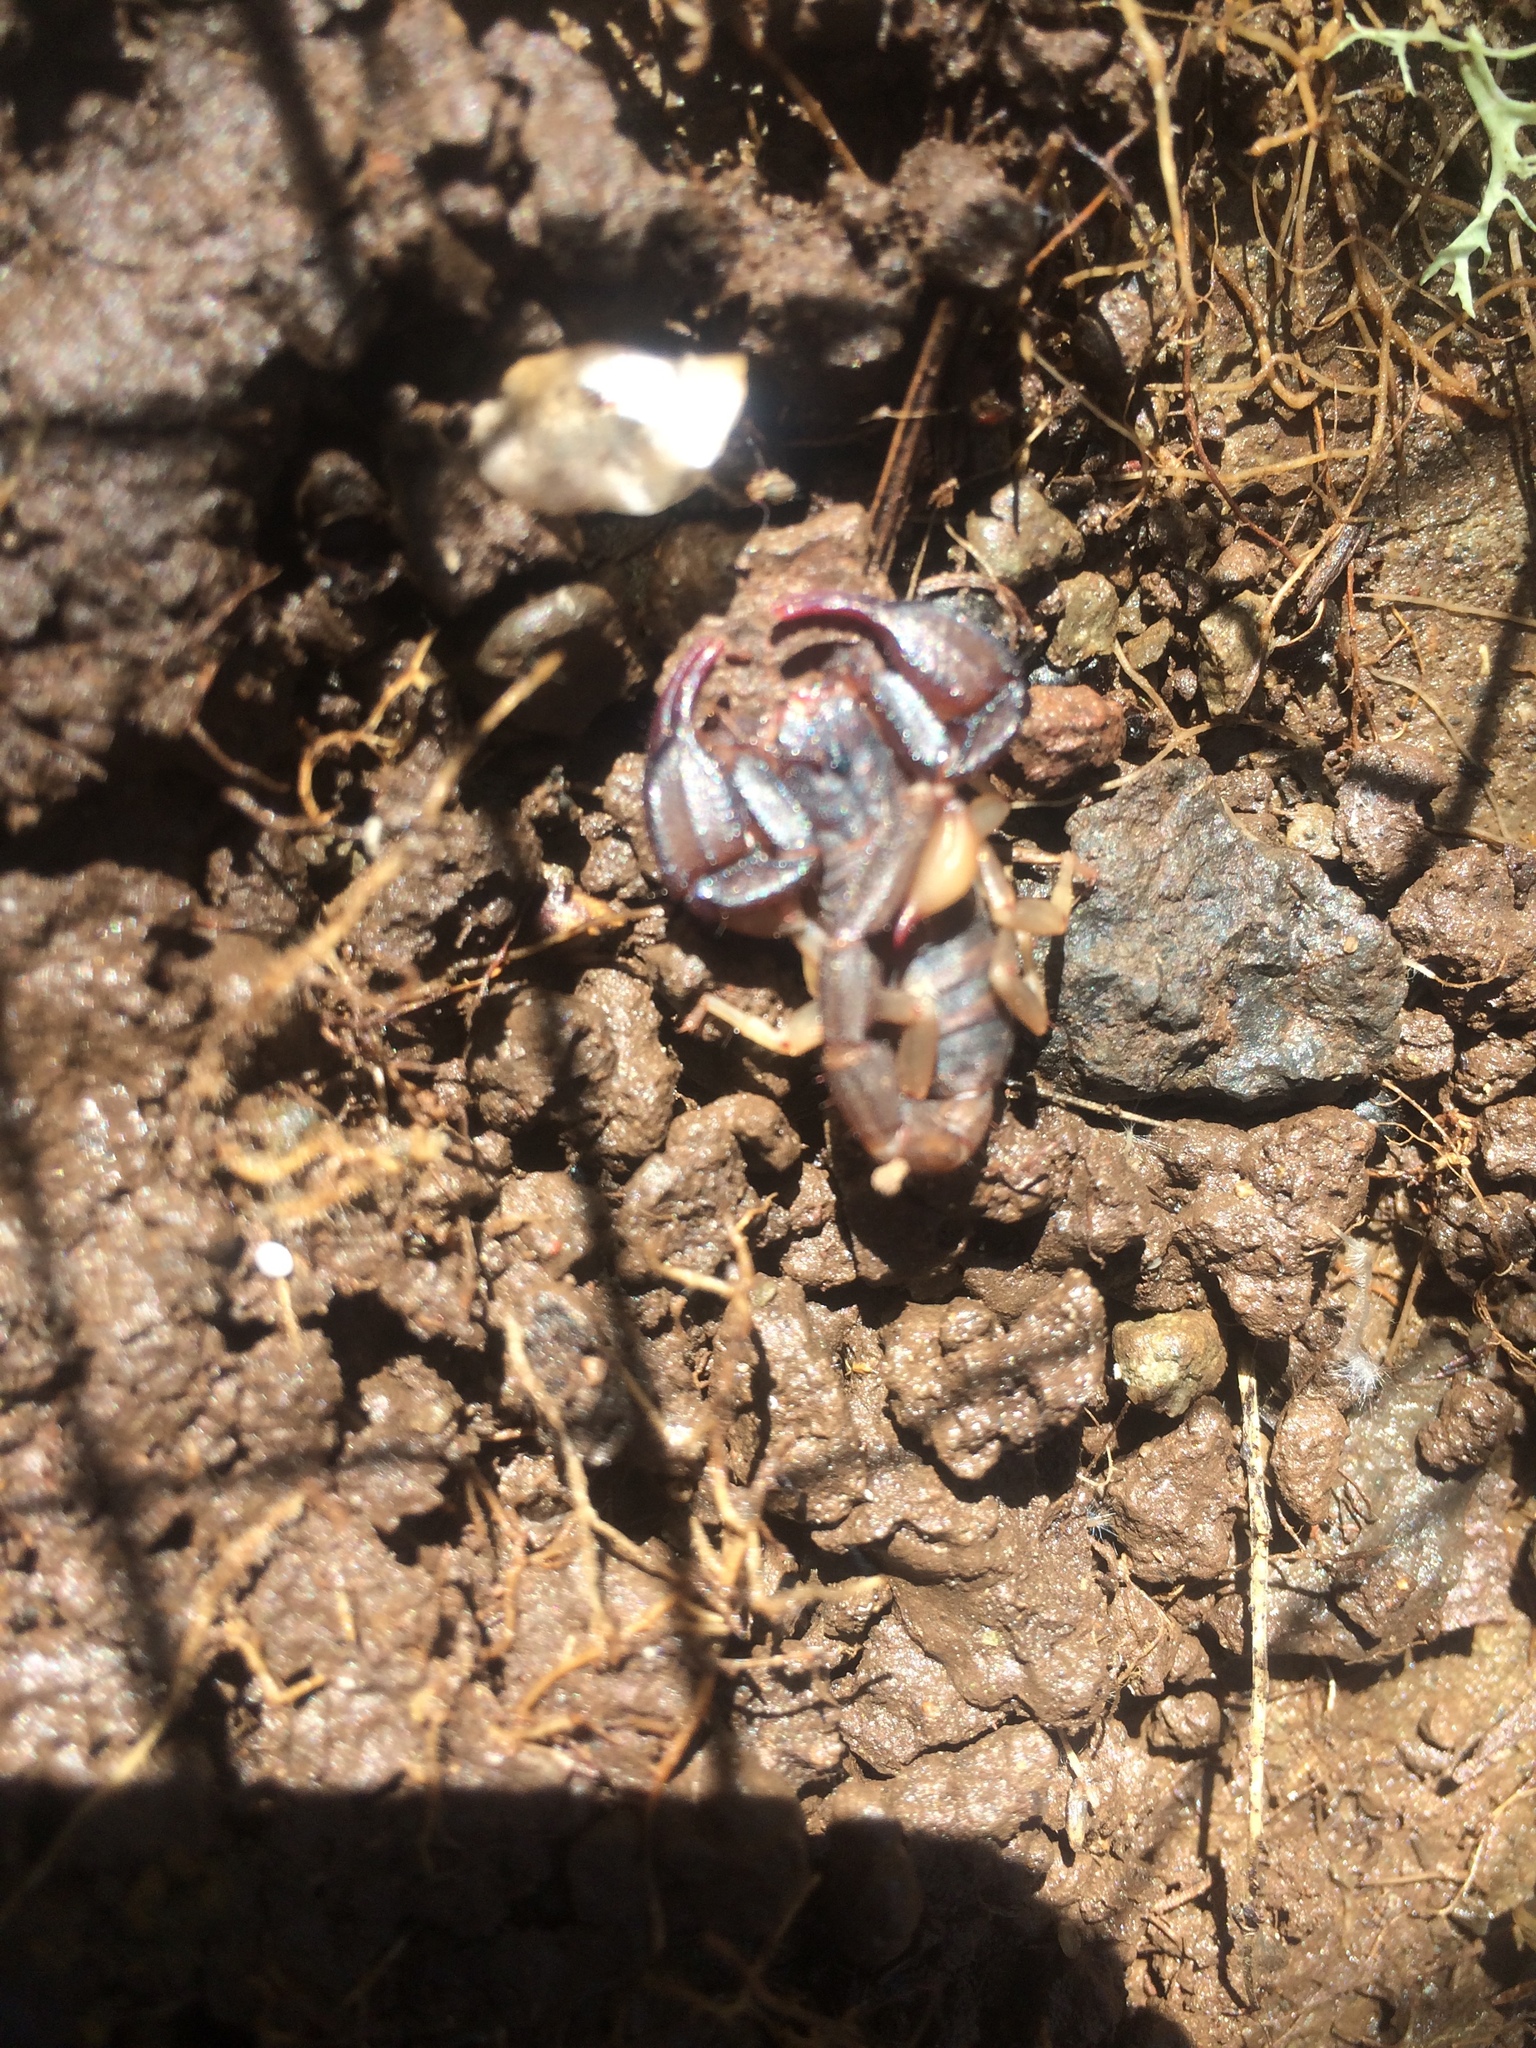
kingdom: Animalia
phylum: Arthropoda
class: Arachnida
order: Scorpiones
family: Chactidae
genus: Uroctonus
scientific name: Uroctonus mordax
